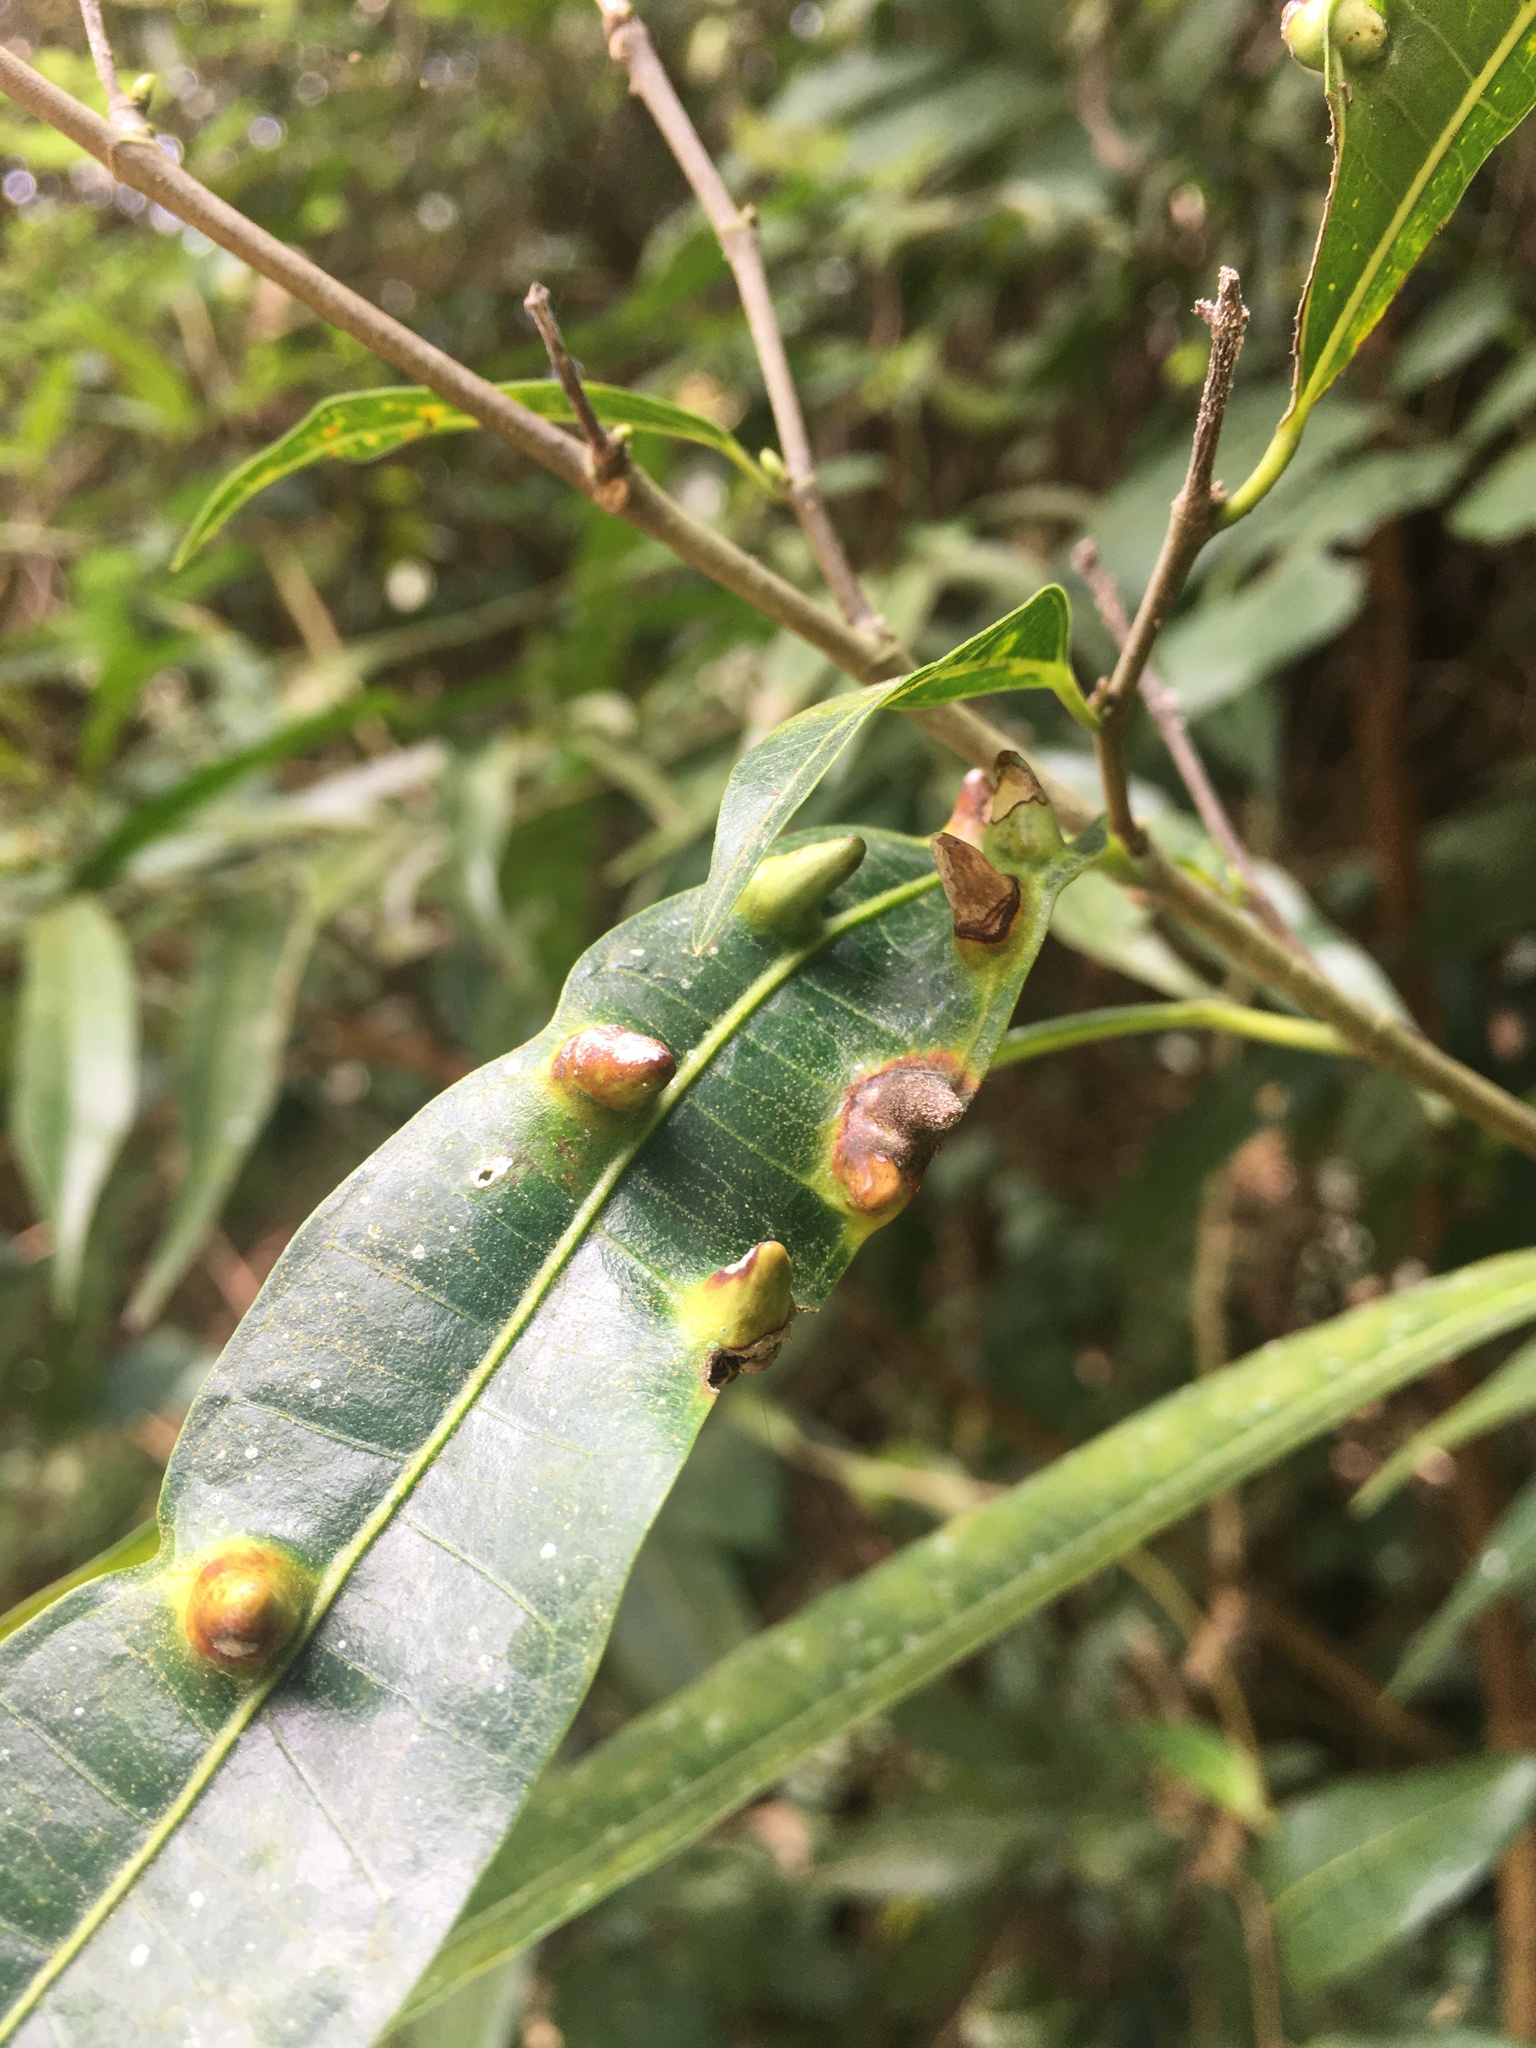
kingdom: Animalia
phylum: Arthropoda
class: Insecta
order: Hemiptera
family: Triozidae
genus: Pauropsylla
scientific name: Pauropsylla triozoptera
